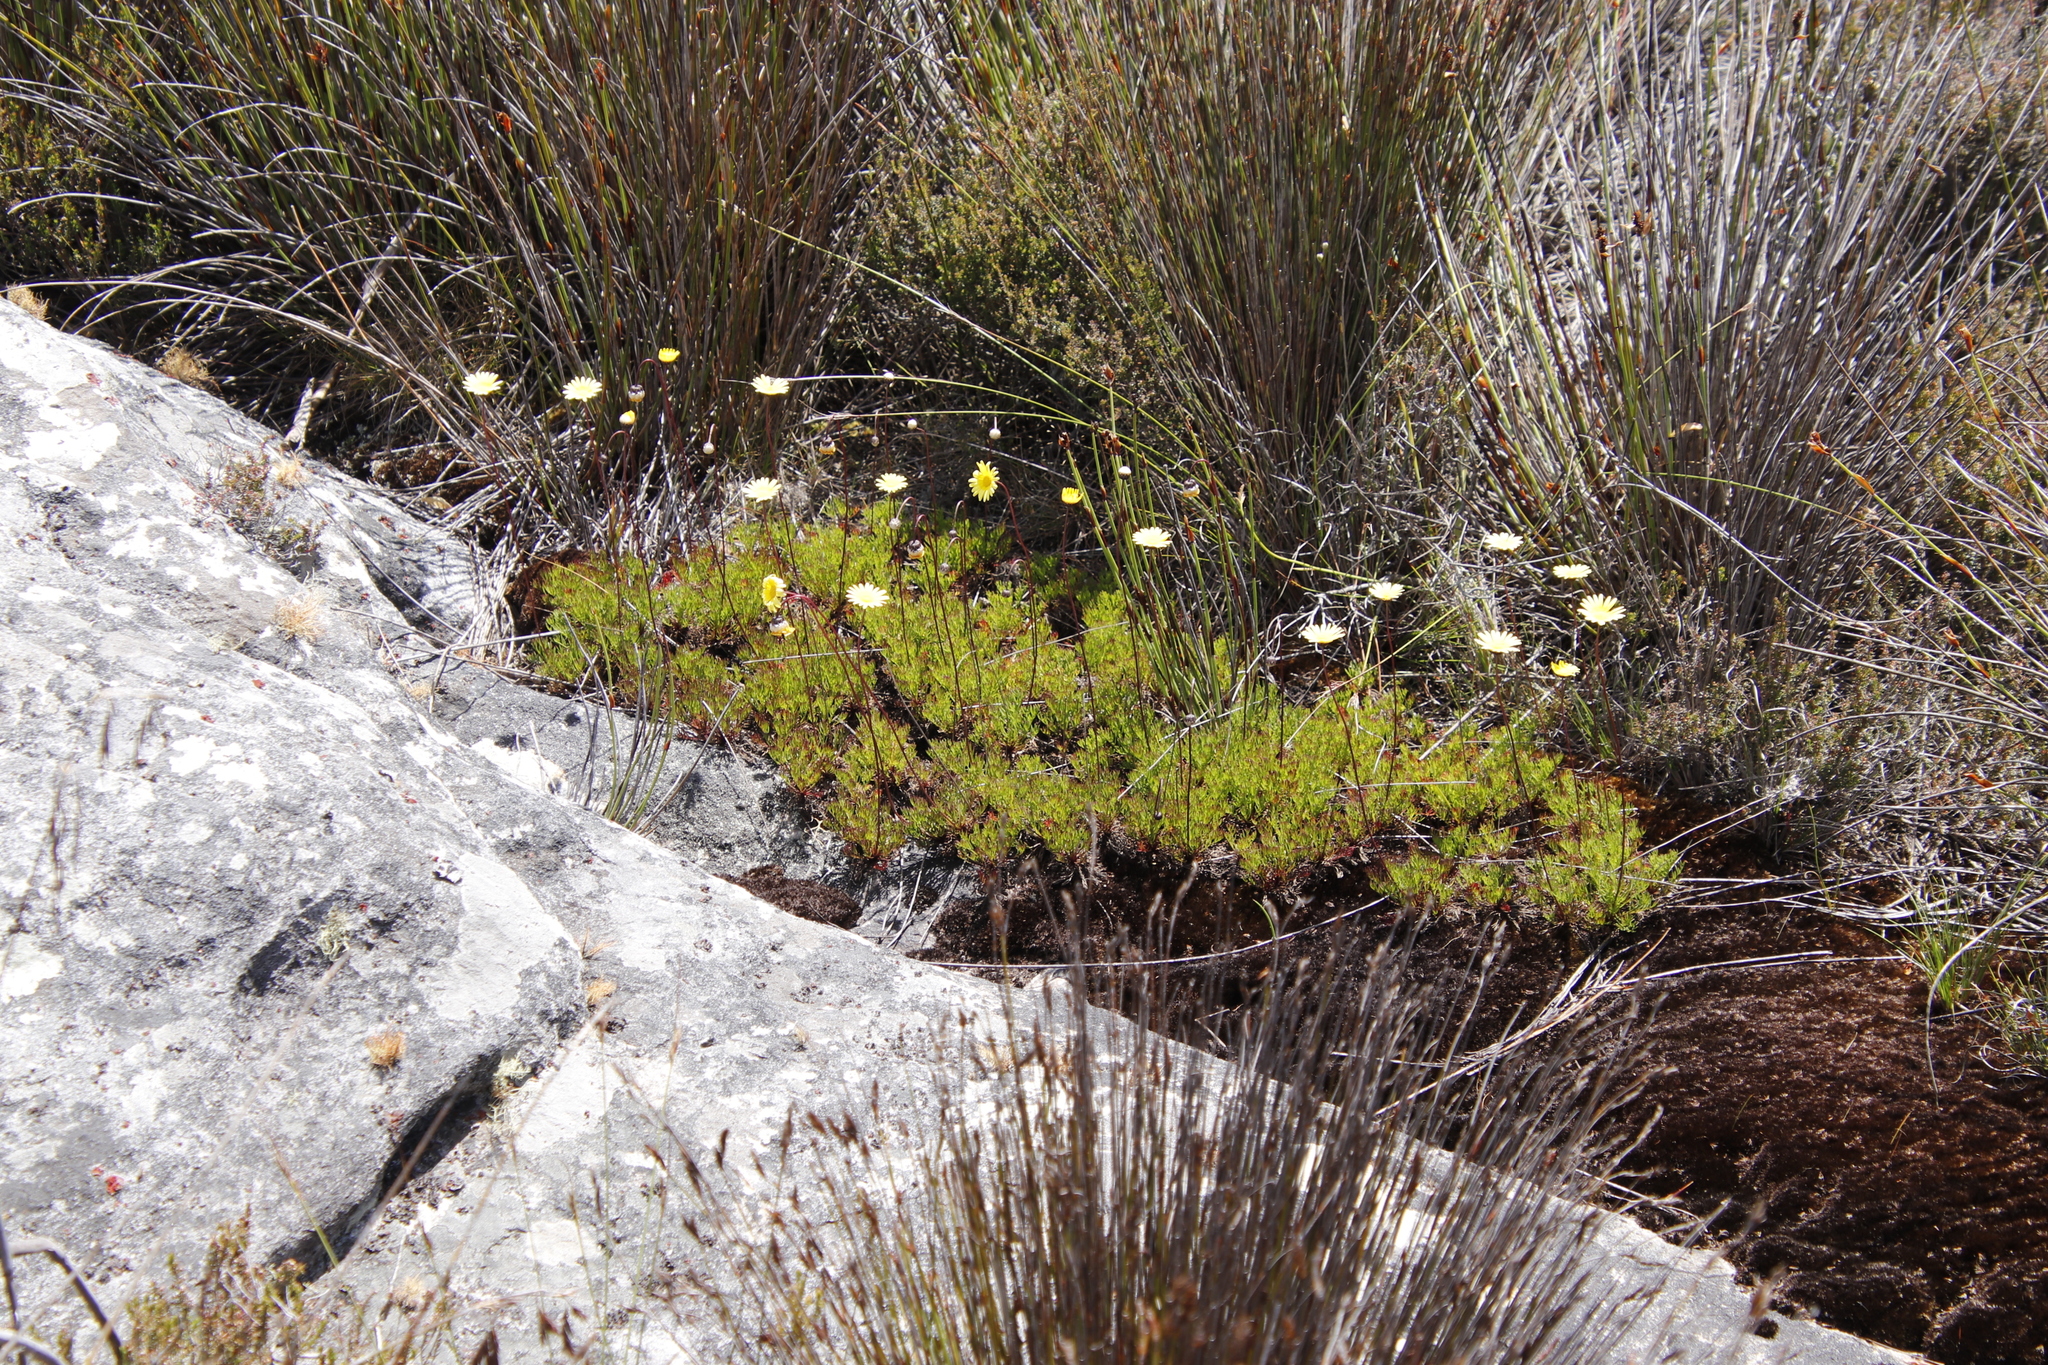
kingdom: Plantae
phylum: Tracheophyta
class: Magnoliopsida
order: Asterales
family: Asteraceae
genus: Ursinia
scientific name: Ursinia nudicaulis
